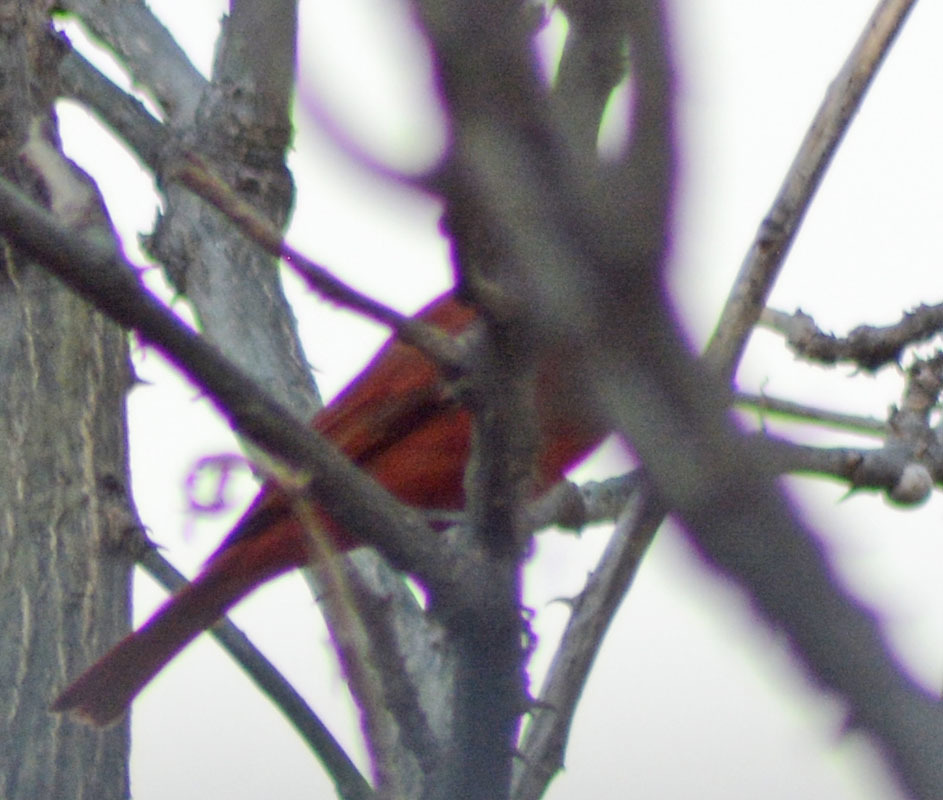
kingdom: Animalia
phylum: Chordata
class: Aves
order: Passeriformes
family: Cardinalidae
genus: Piranga
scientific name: Piranga rubra
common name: Summer tanager
